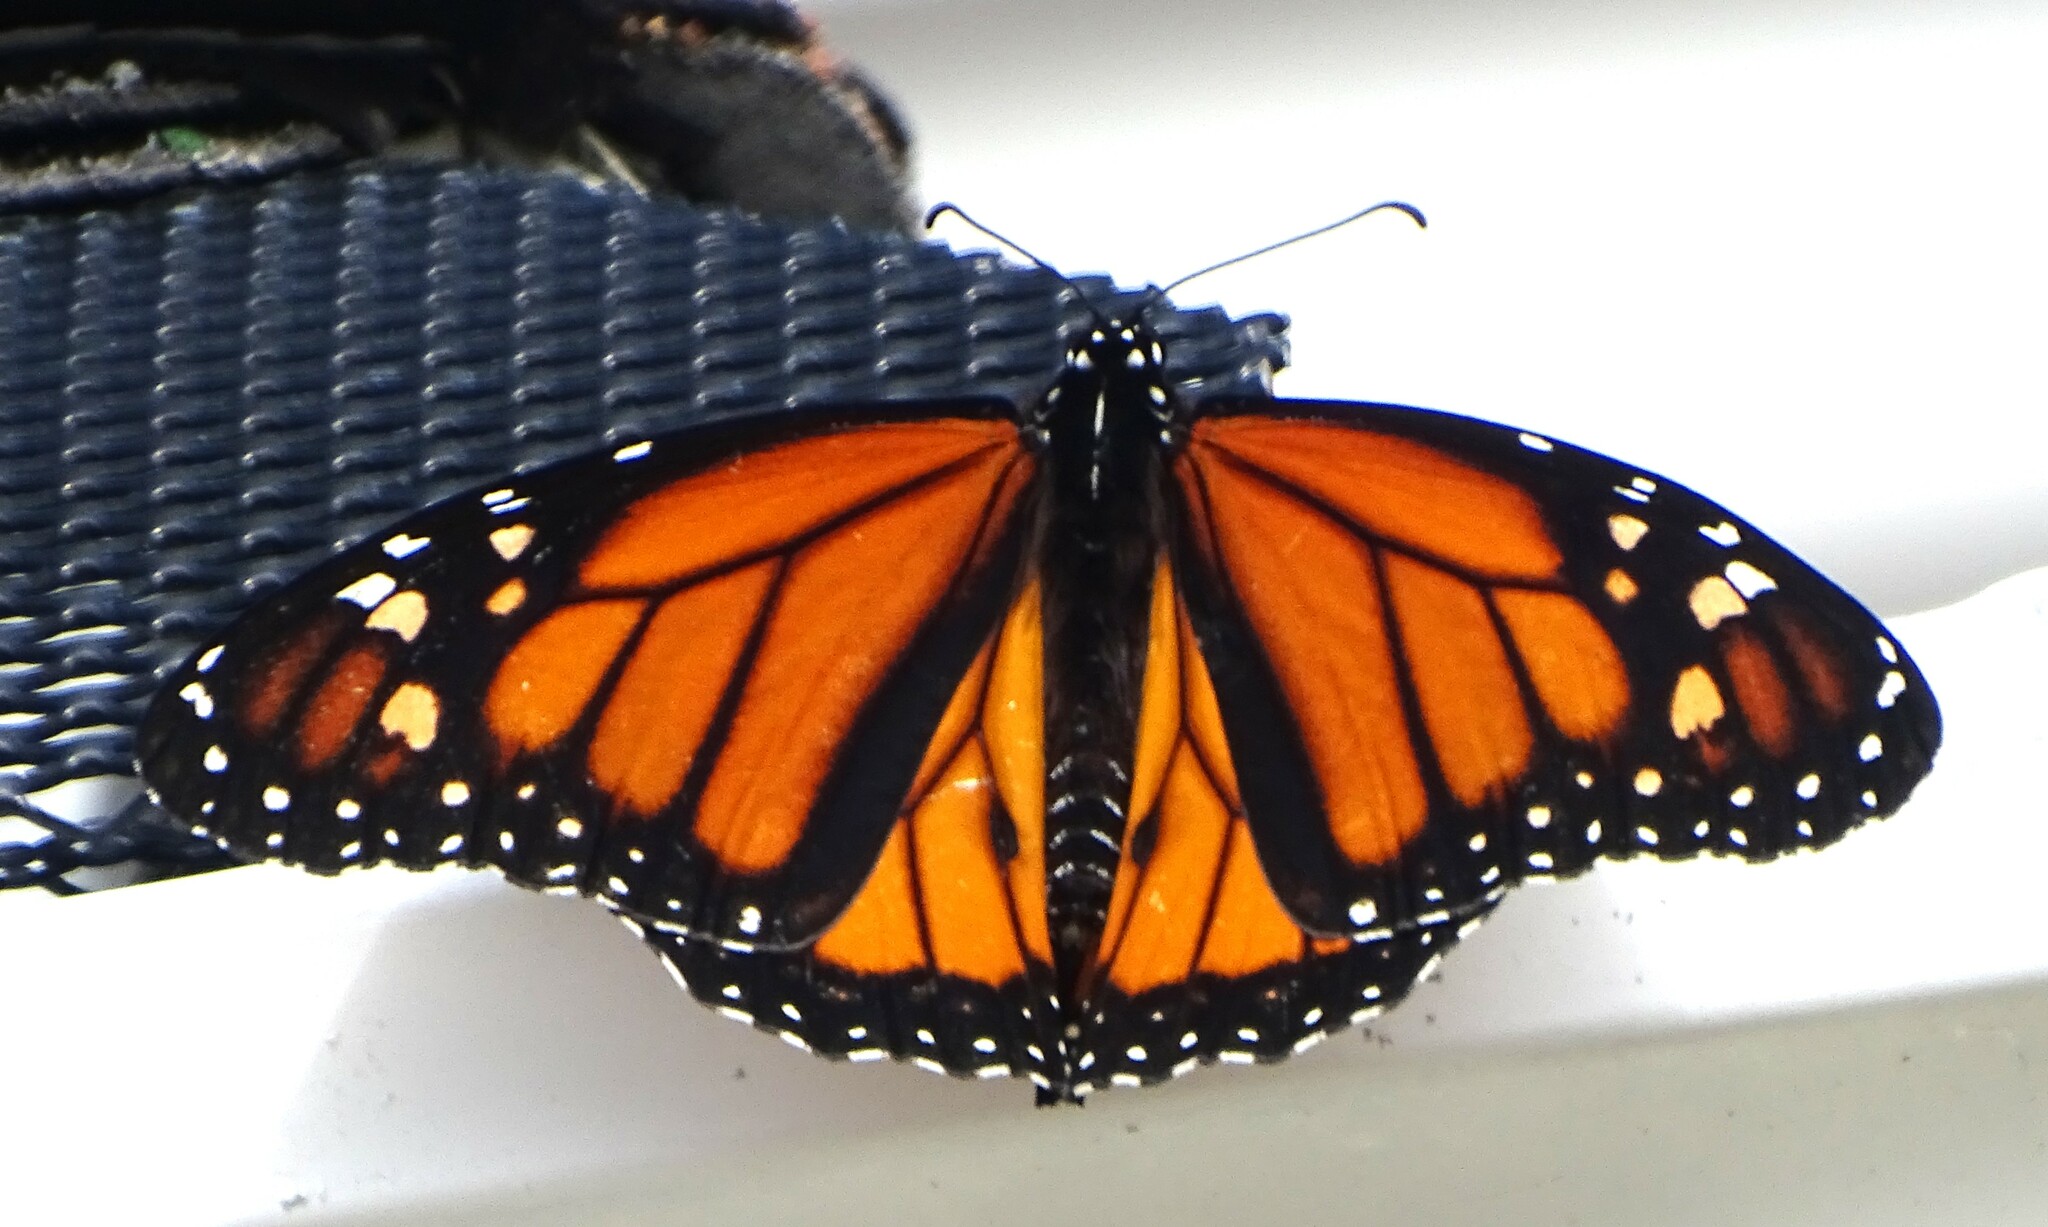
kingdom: Animalia
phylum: Arthropoda
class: Insecta
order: Lepidoptera
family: Nymphalidae
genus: Danaus
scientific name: Danaus plexippus
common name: Monarch
